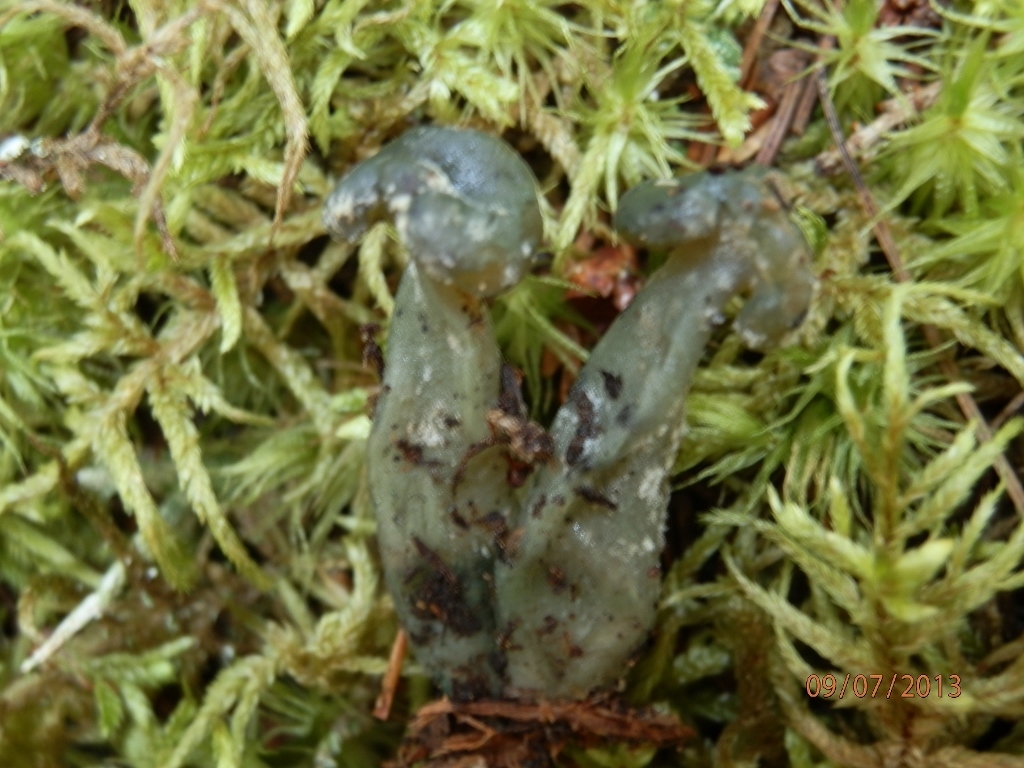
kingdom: Fungi
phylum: Ascomycota
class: Leotiomycetes
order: Leotiales
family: Leotiaceae
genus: Leotia
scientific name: Leotia atrovirens
